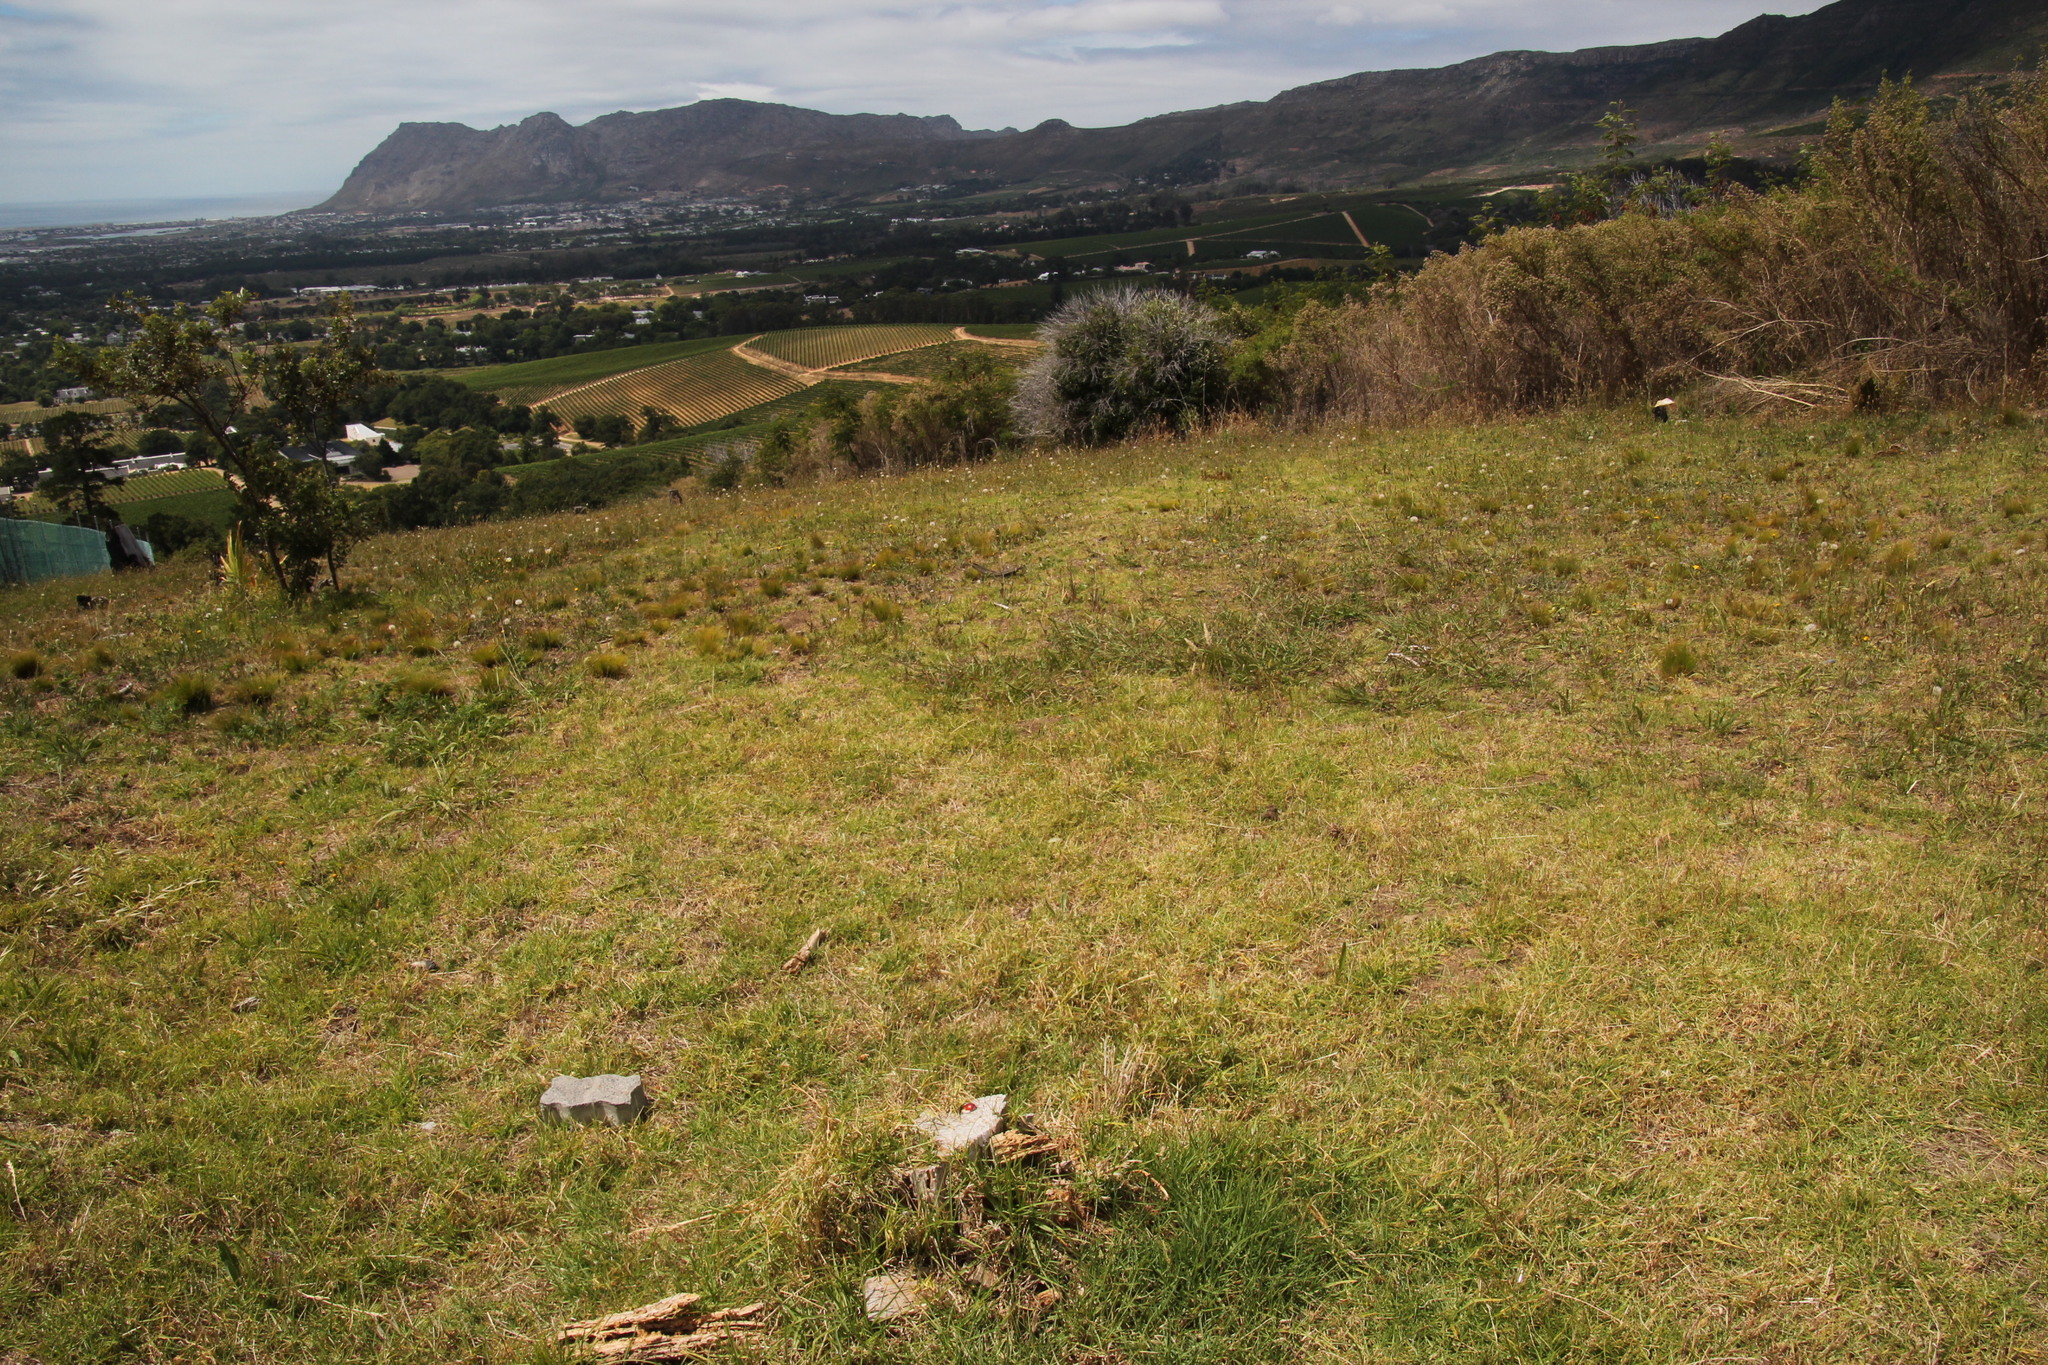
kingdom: Plantae
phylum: Tracheophyta
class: Liliopsida
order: Poales
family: Poaceae
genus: Cenchrus
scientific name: Cenchrus clandestinus
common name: Kikuyugrass
